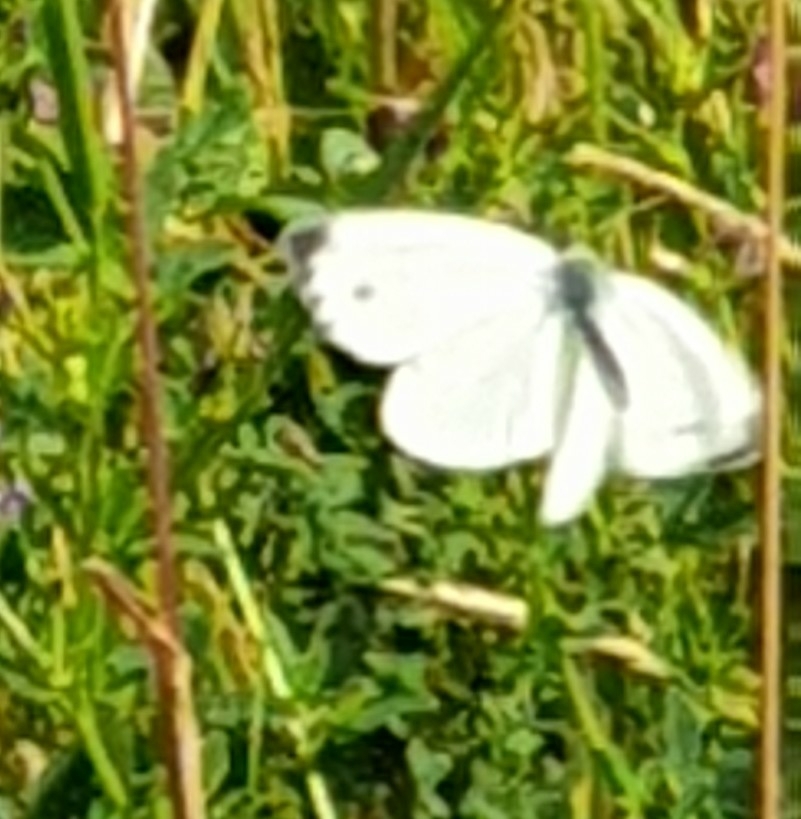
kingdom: Animalia
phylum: Arthropoda
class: Insecta
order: Lepidoptera
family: Pieridae
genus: Pieris
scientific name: Pieris napi
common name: Green-veined white
